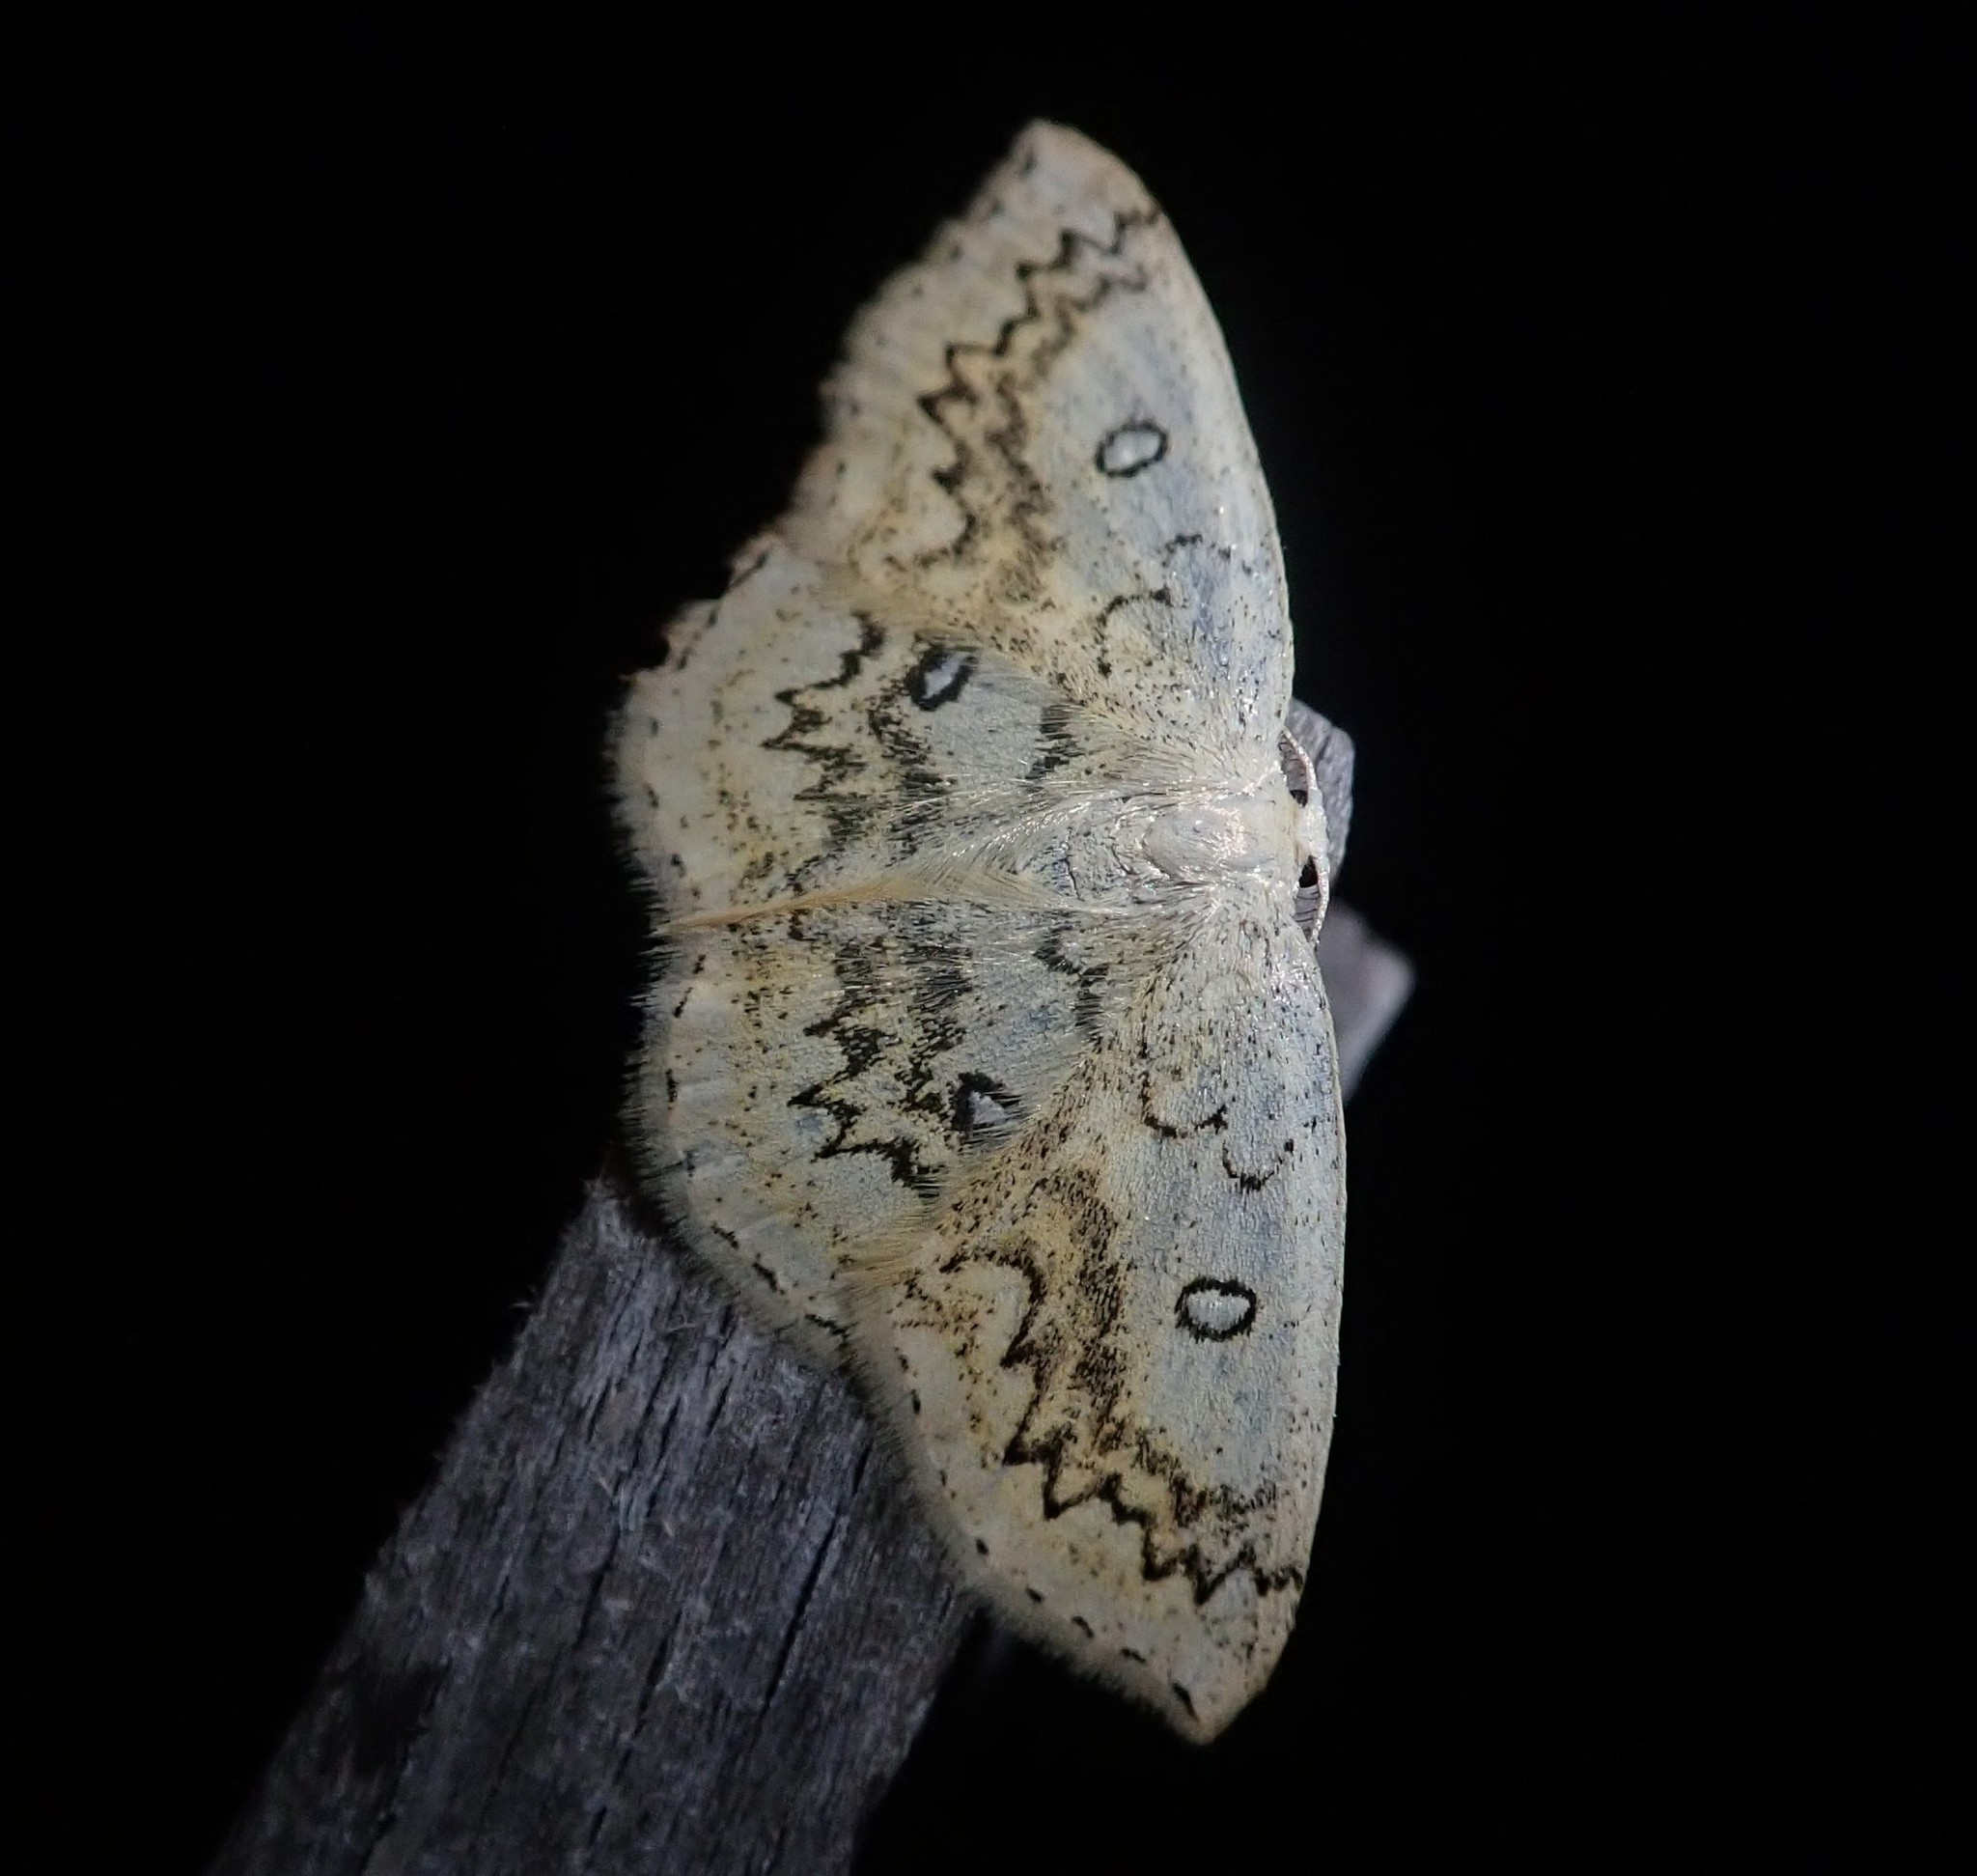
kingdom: Animalia
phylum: Arthropoda
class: Insecta
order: Lepidoptera
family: Geometridae
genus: Cyclophora
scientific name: Cyclophora annularia
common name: Mocha
